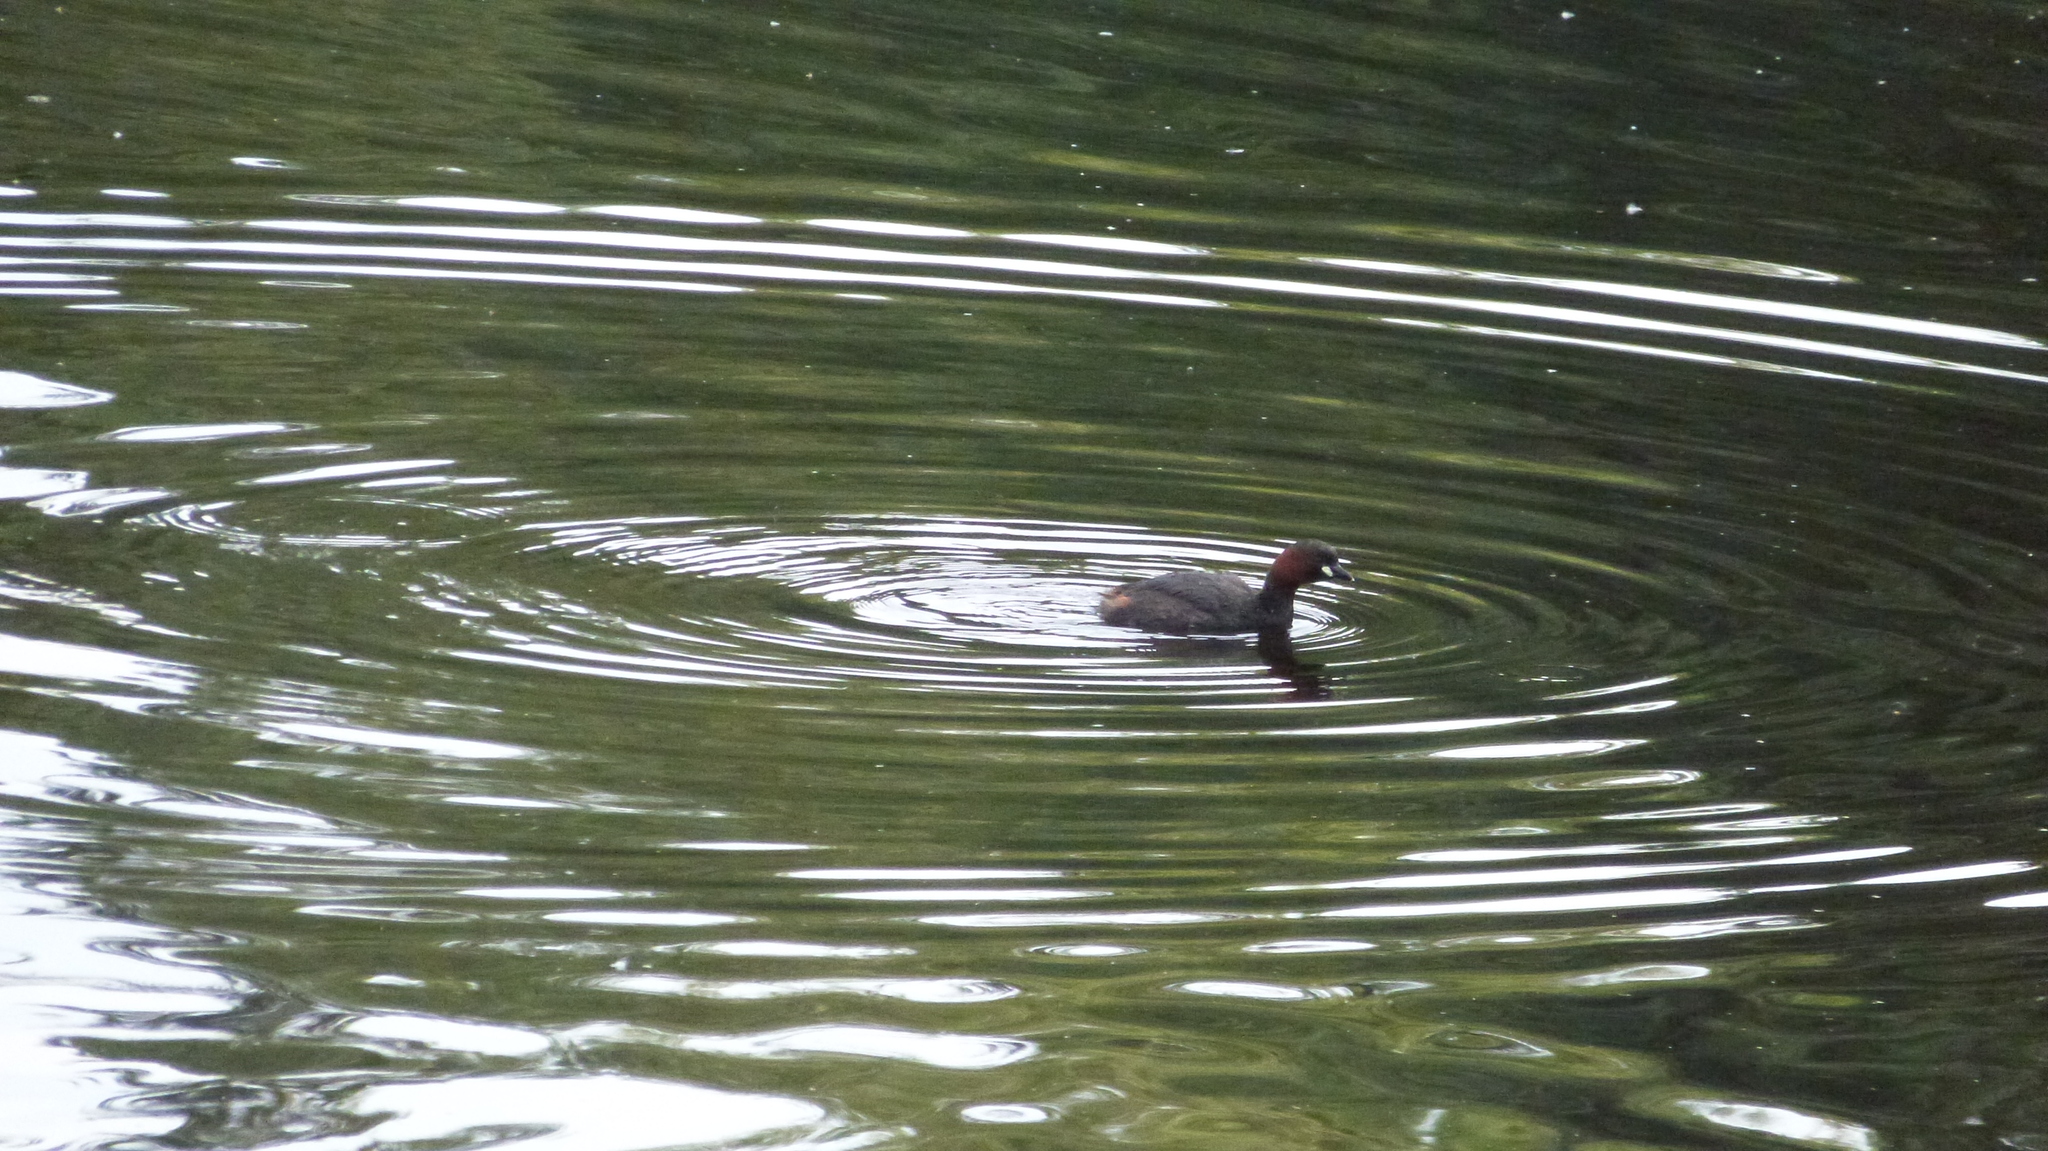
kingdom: Animalia
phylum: Chordata
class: Aves
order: Podicipediformes
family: Podicipedidae
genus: Tachybaptus
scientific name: Tachybaptus ruficollis
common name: Little grebe
